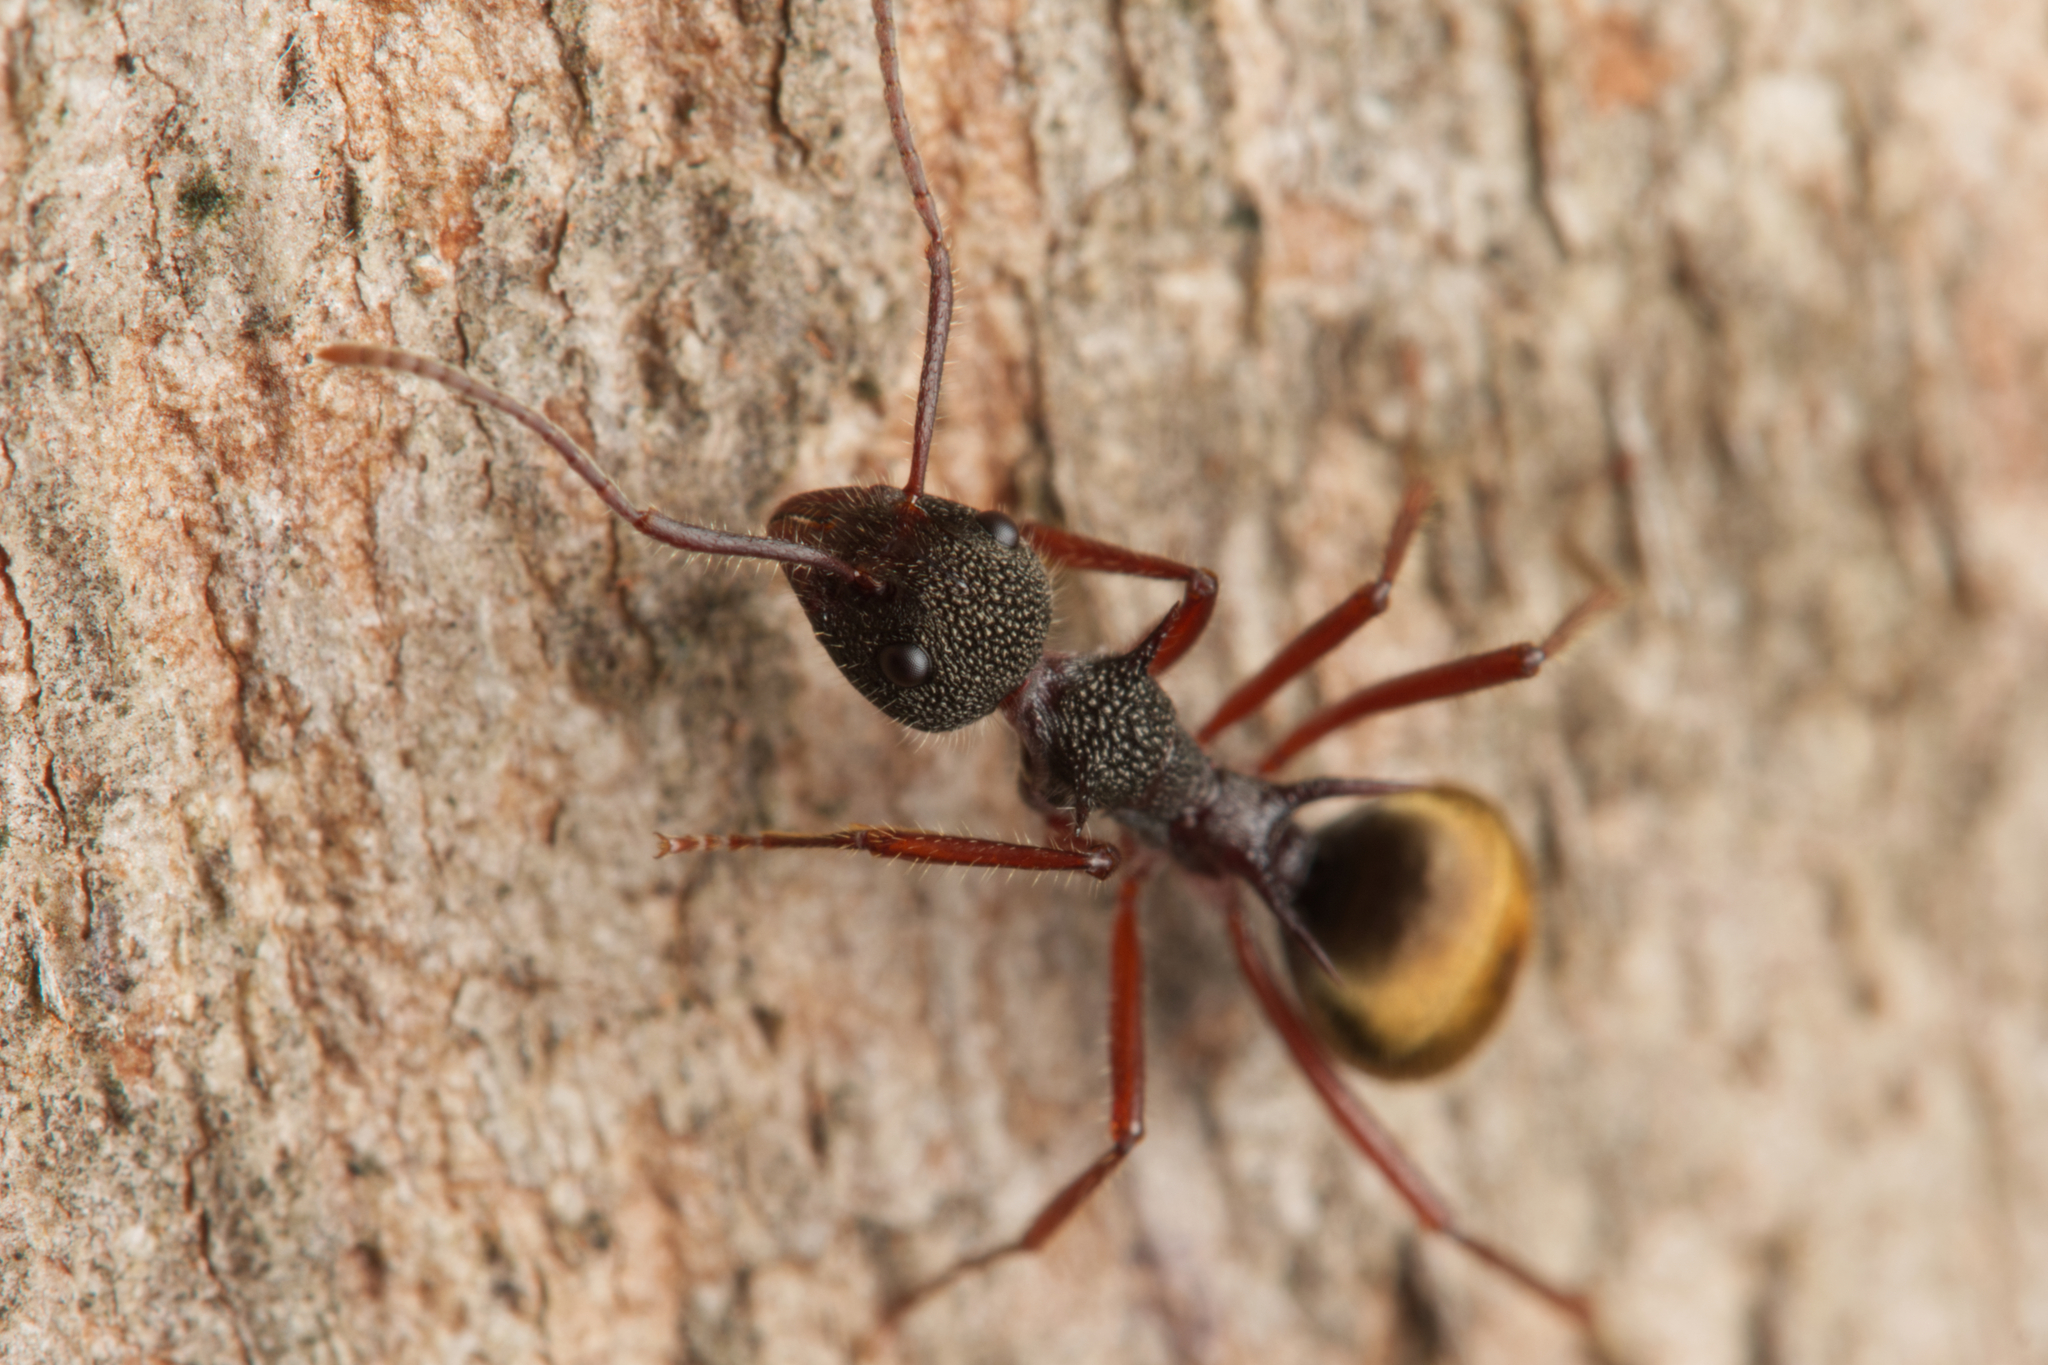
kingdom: Animalia
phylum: Arthropoda
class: Insecta
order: Hymenoptera
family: Formicidae
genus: Dolichoderus
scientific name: Dolichoderus extensispinus
